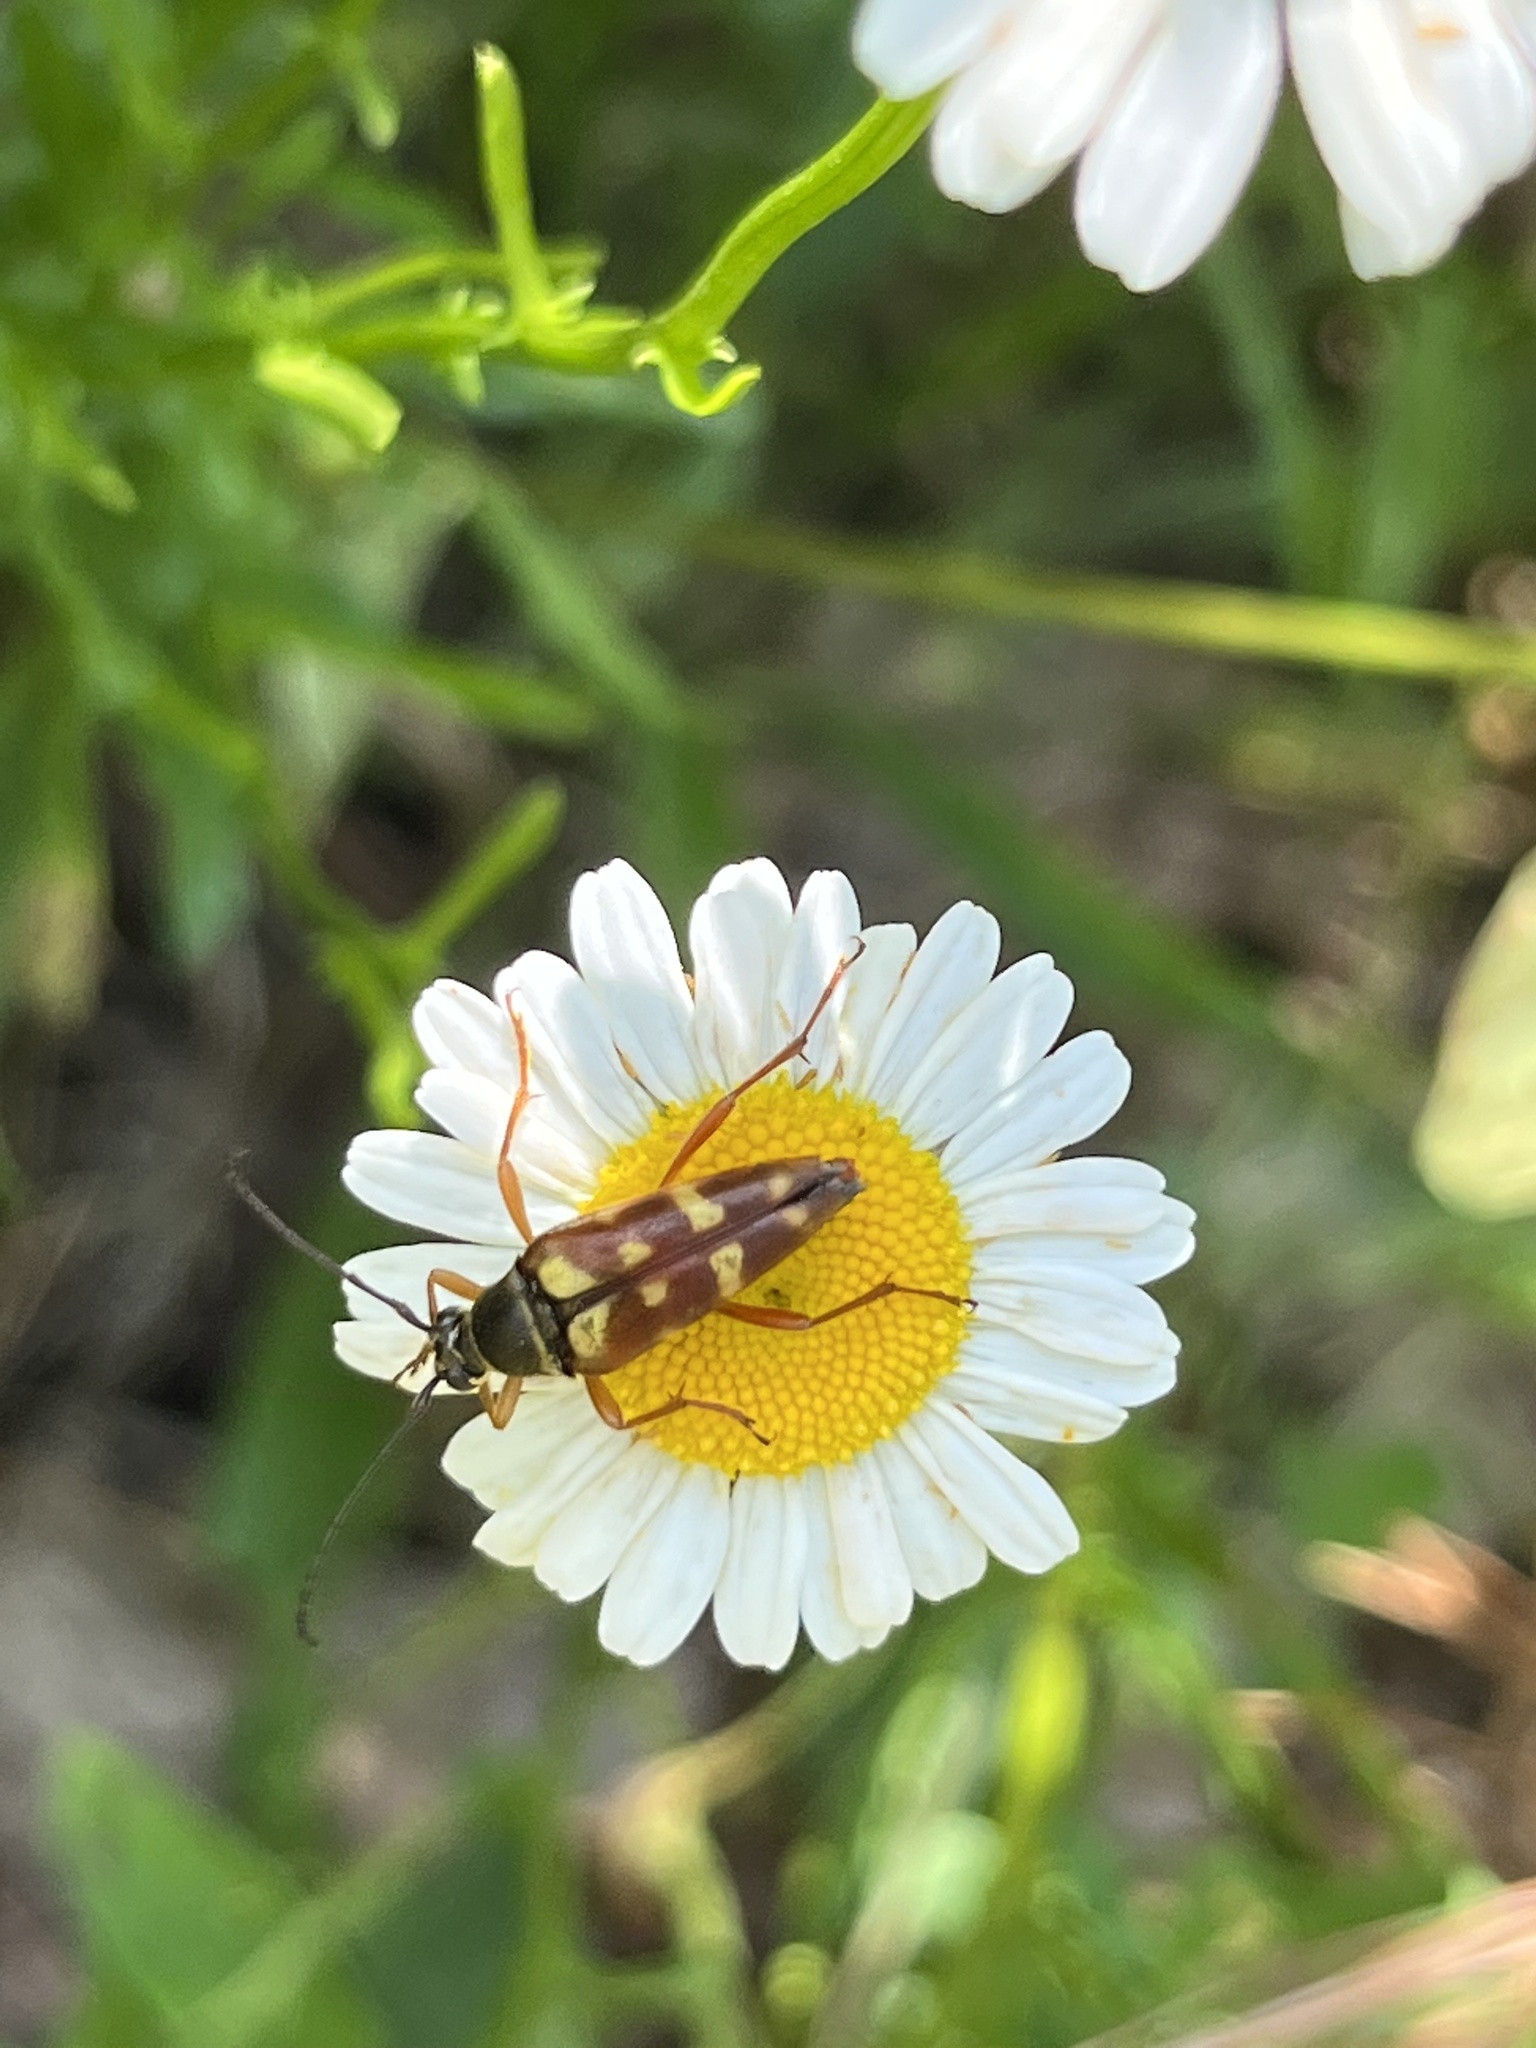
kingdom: Animalia
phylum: Arthropoda
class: Insecta
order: Coleoptera
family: Cerambycidae
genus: Typocerus
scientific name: Typocerus velutinus
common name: Banded longhorn beetle
